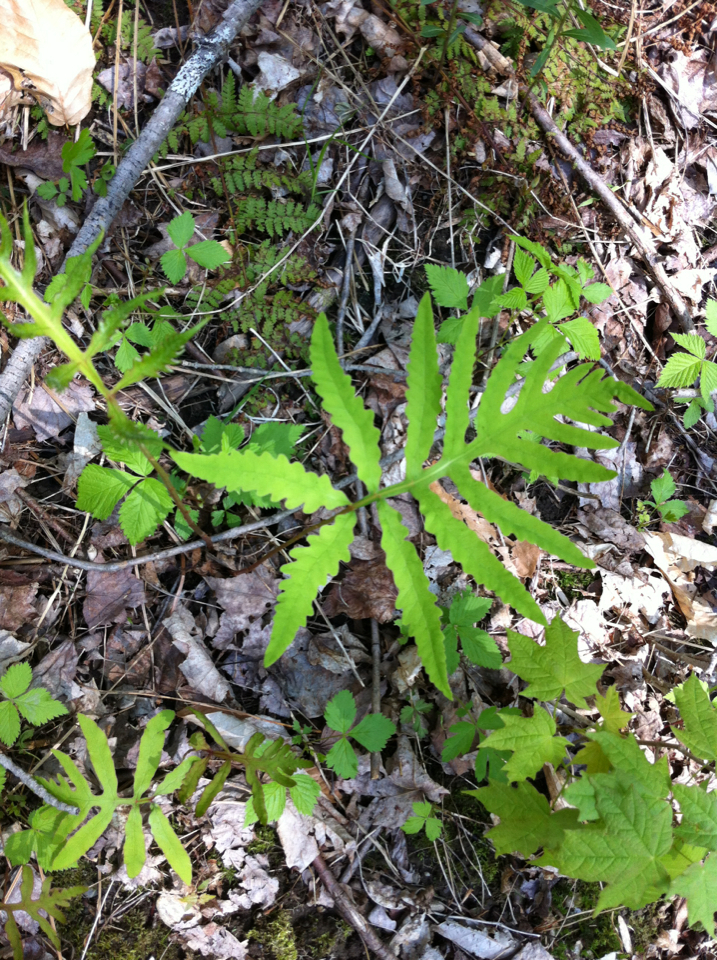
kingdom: Plantae
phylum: Tracheophyta
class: Polypodiopsida
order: Polypodiales
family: Onocleaceae
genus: Onoclea
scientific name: Onoclea sensibilis
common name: Sensitive fern
